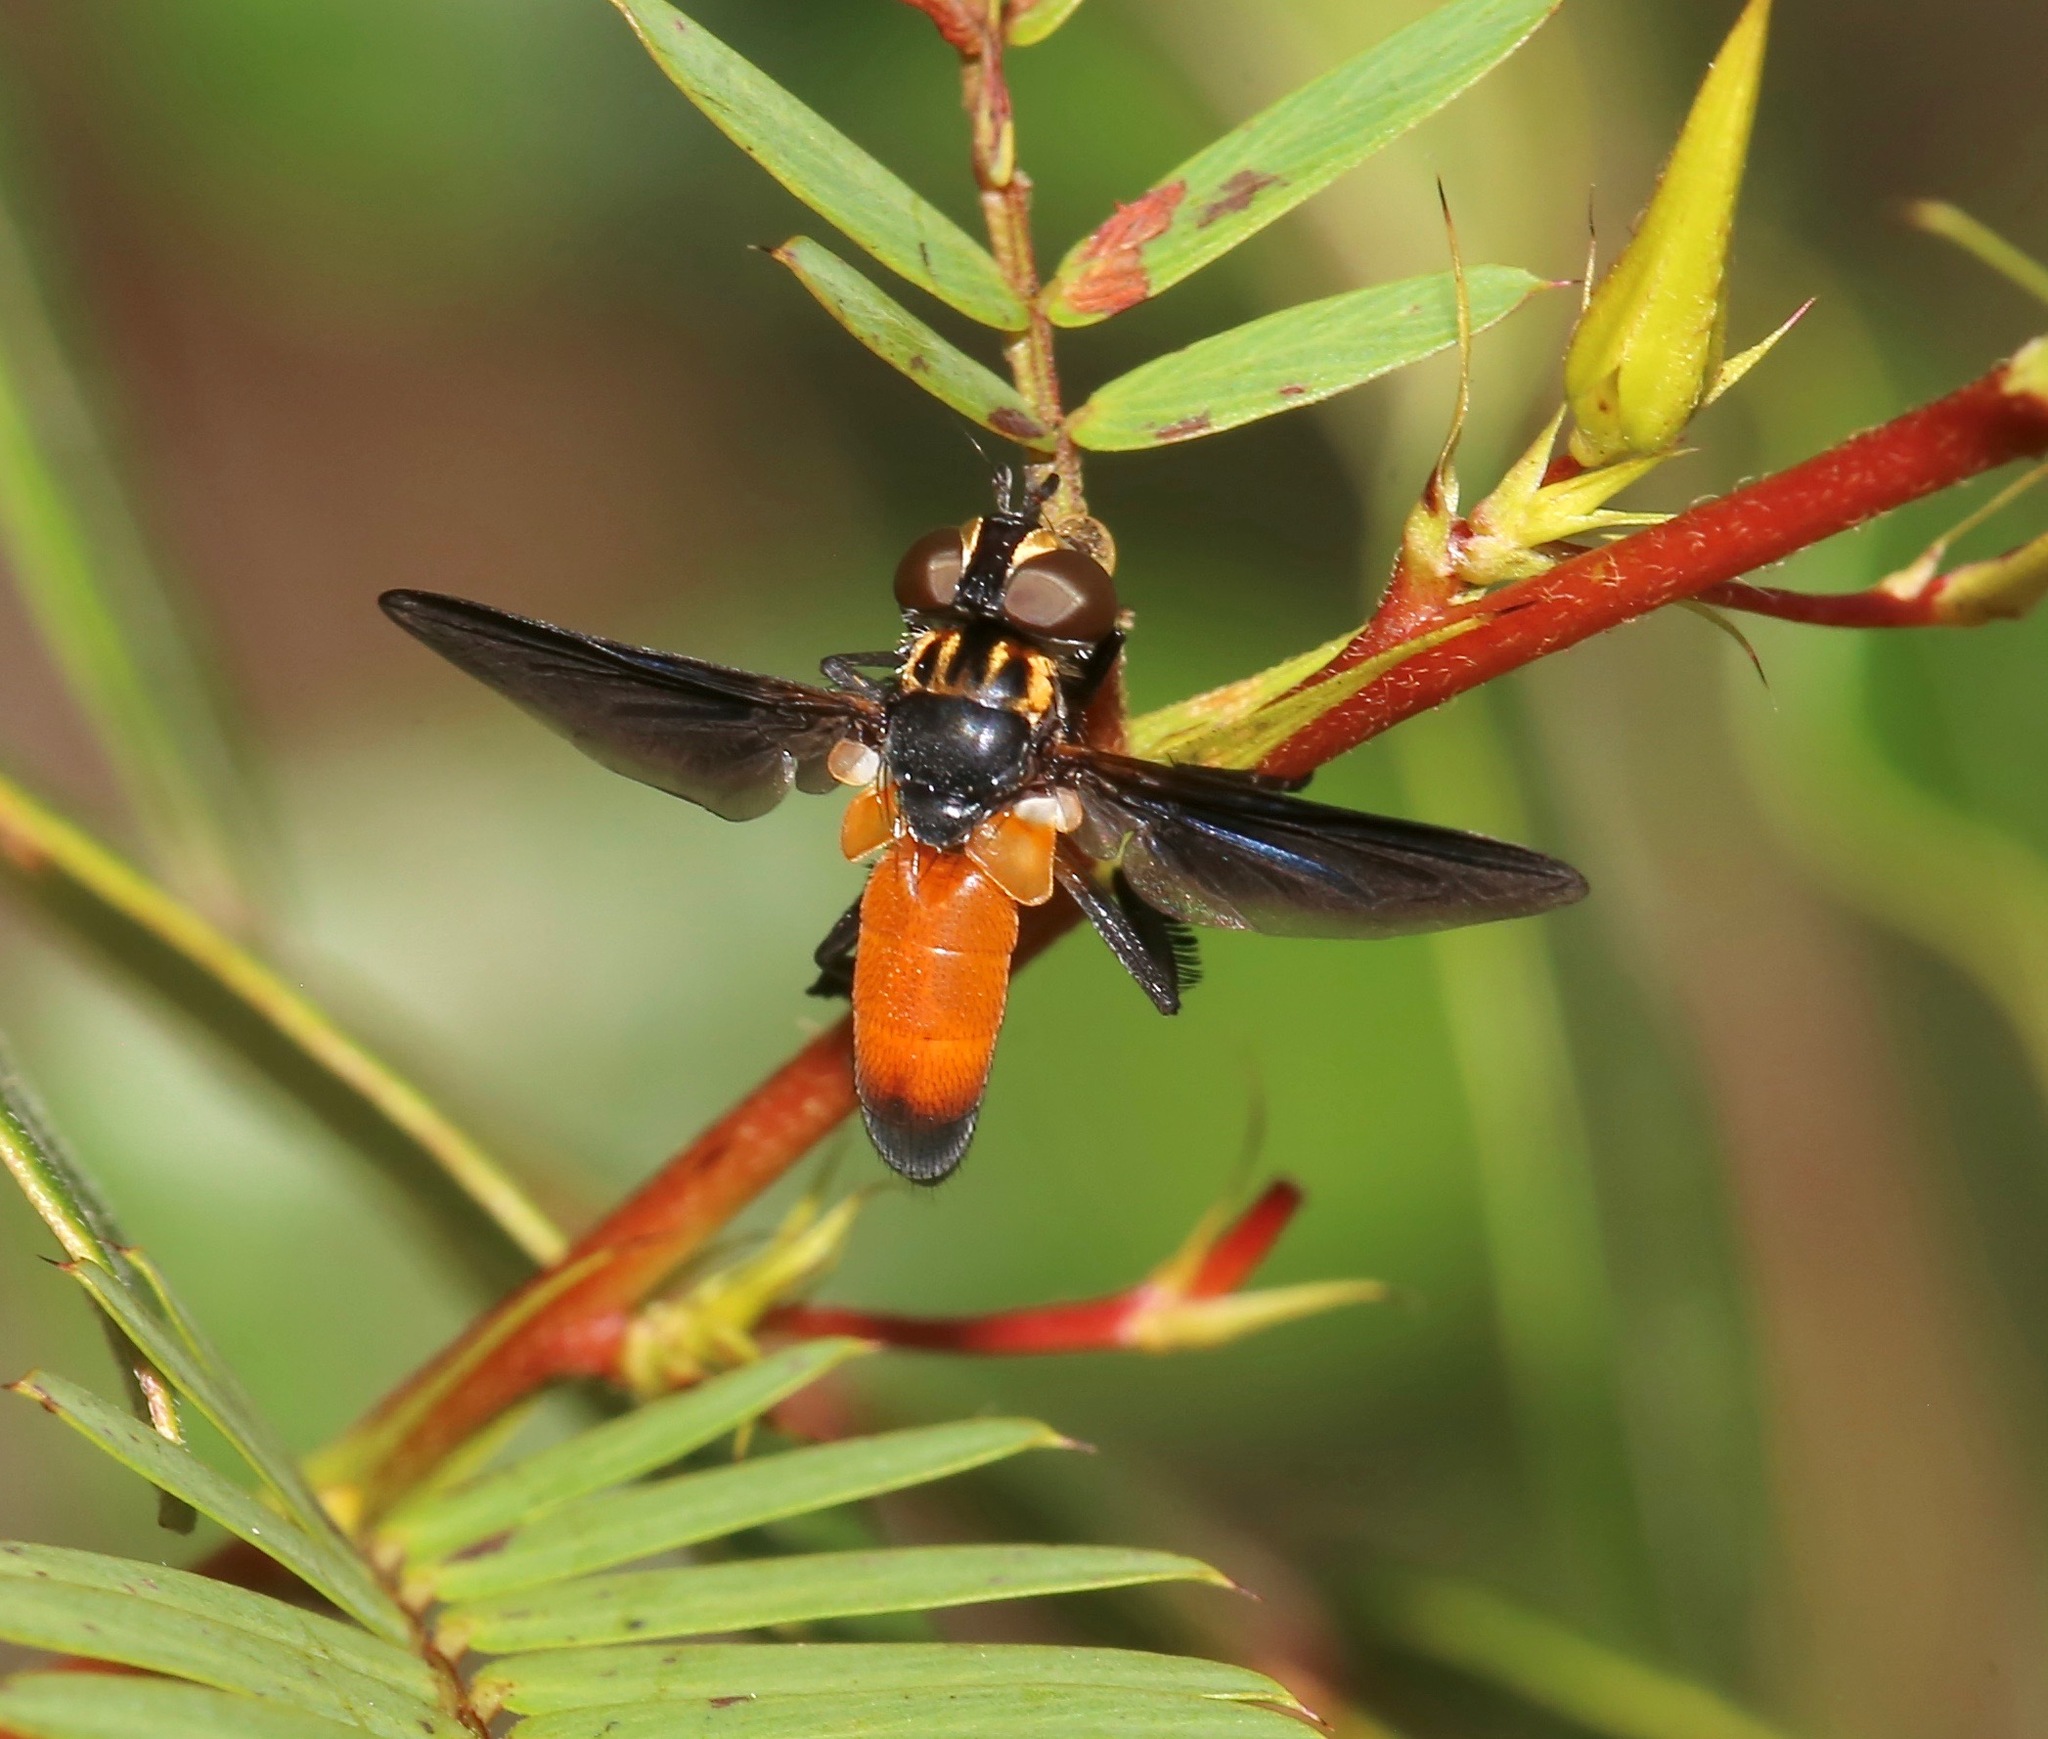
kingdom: Animalia
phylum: Arthropoda
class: Insecta
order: Diptera
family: Tachinidae
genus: Trichopoda
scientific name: Trichopoda pennipes
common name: Tachinid fly
